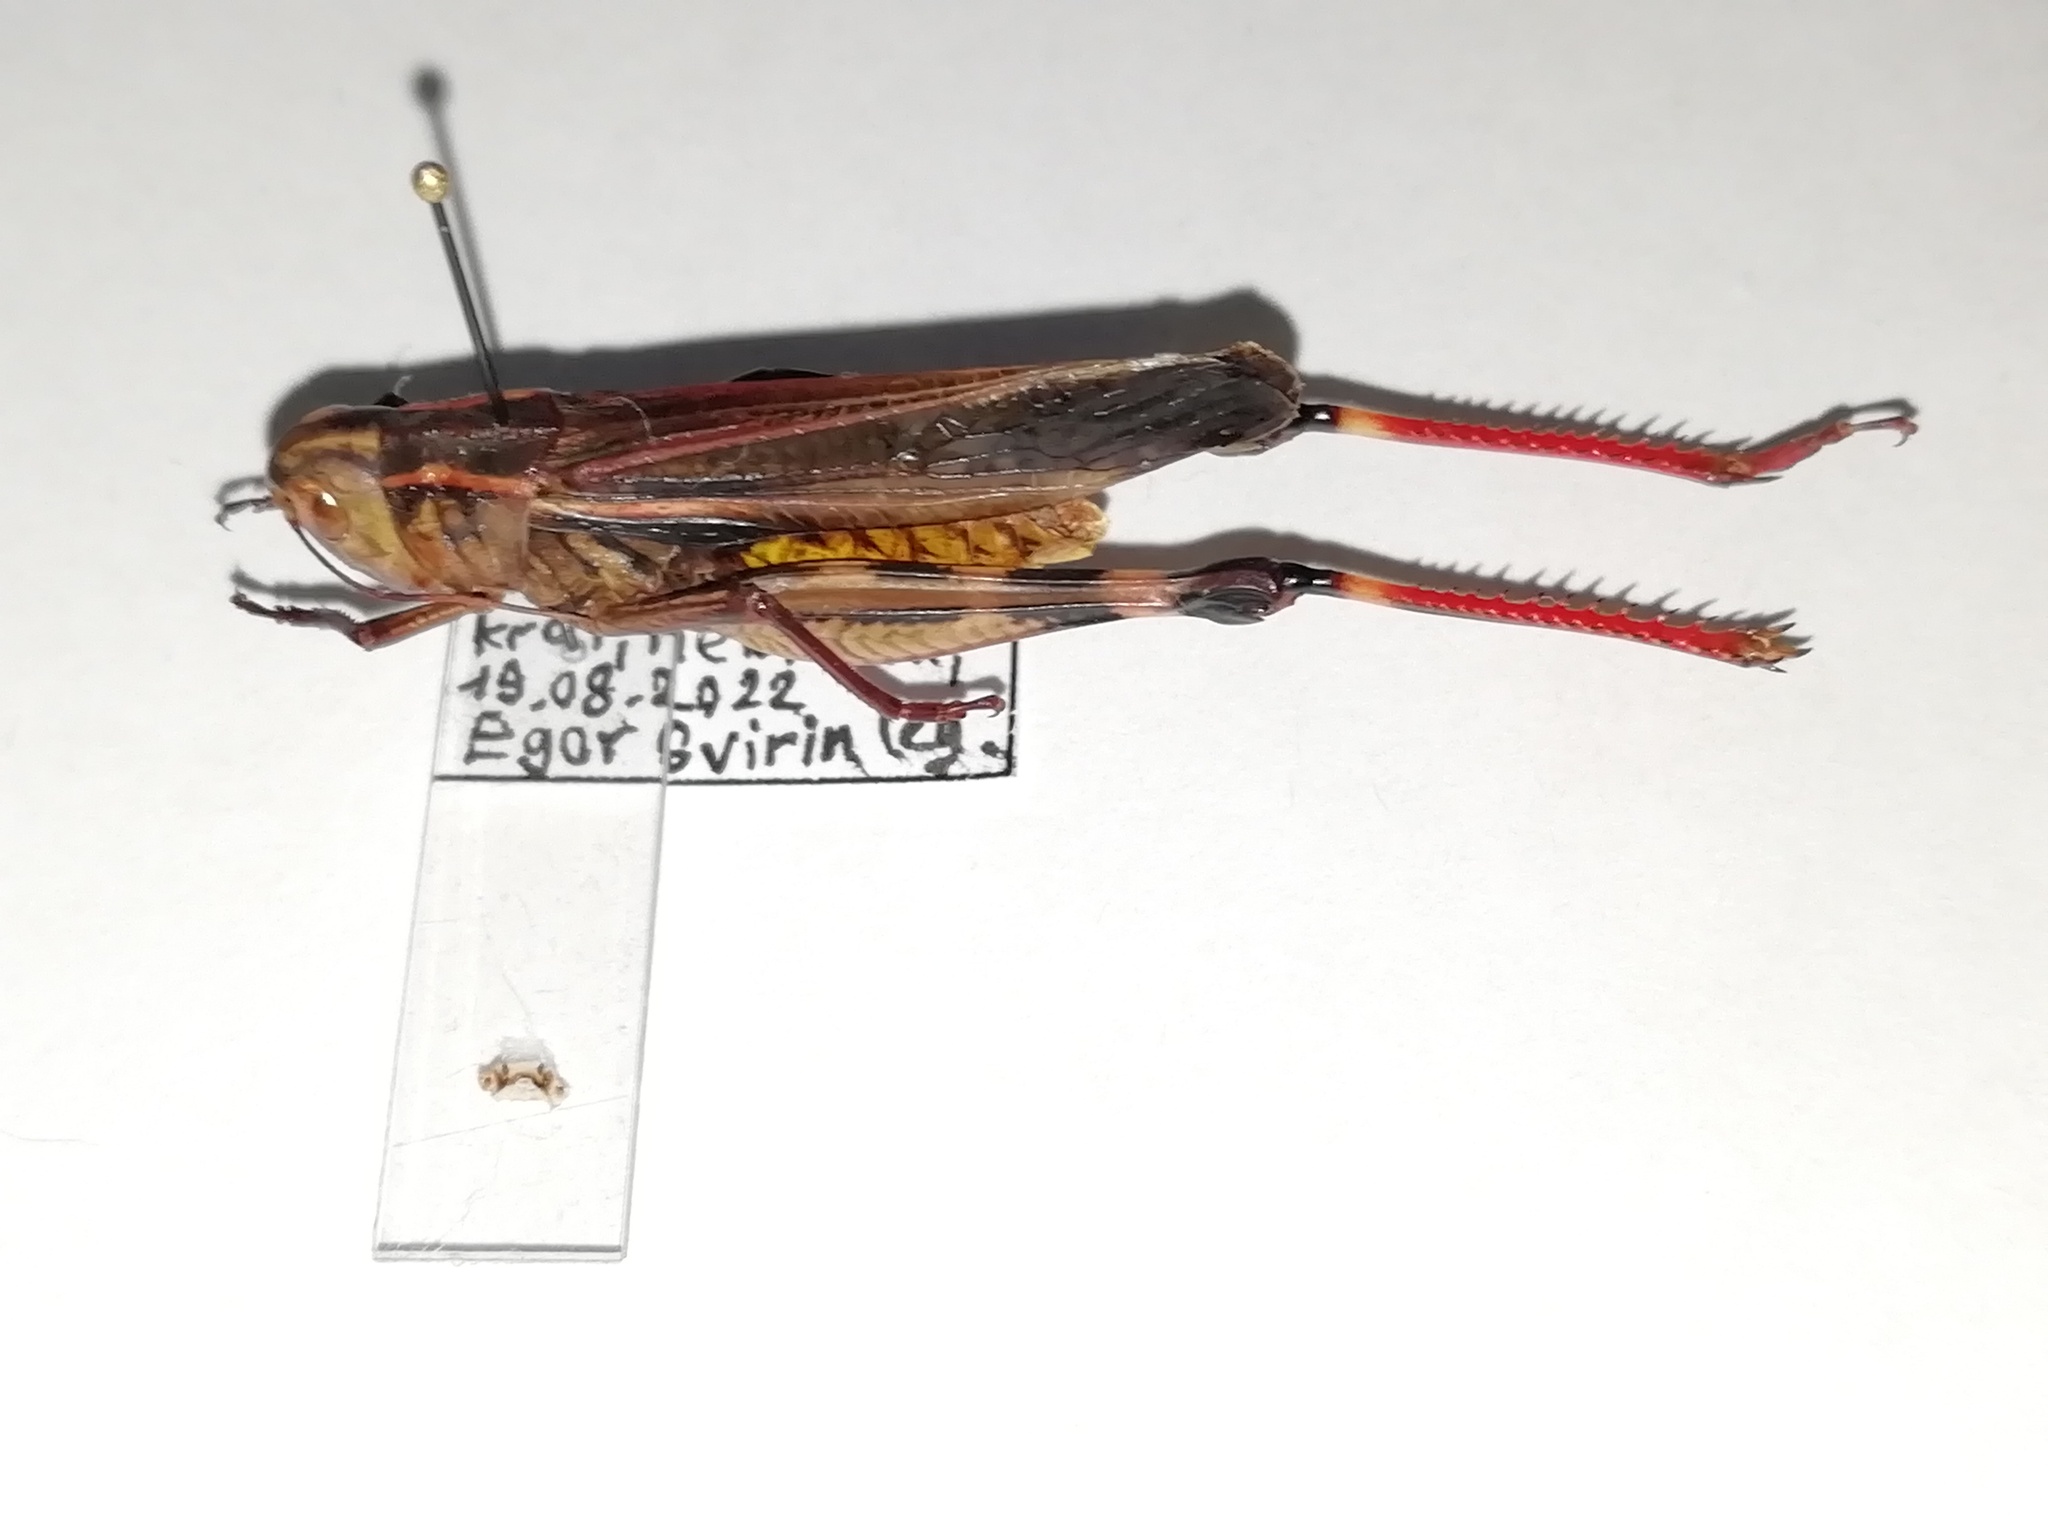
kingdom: Animalia
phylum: Arthropoda
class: Insecta
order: Orthoptera
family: Acrididae
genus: Arcyptera
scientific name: Arcyptera fusca
